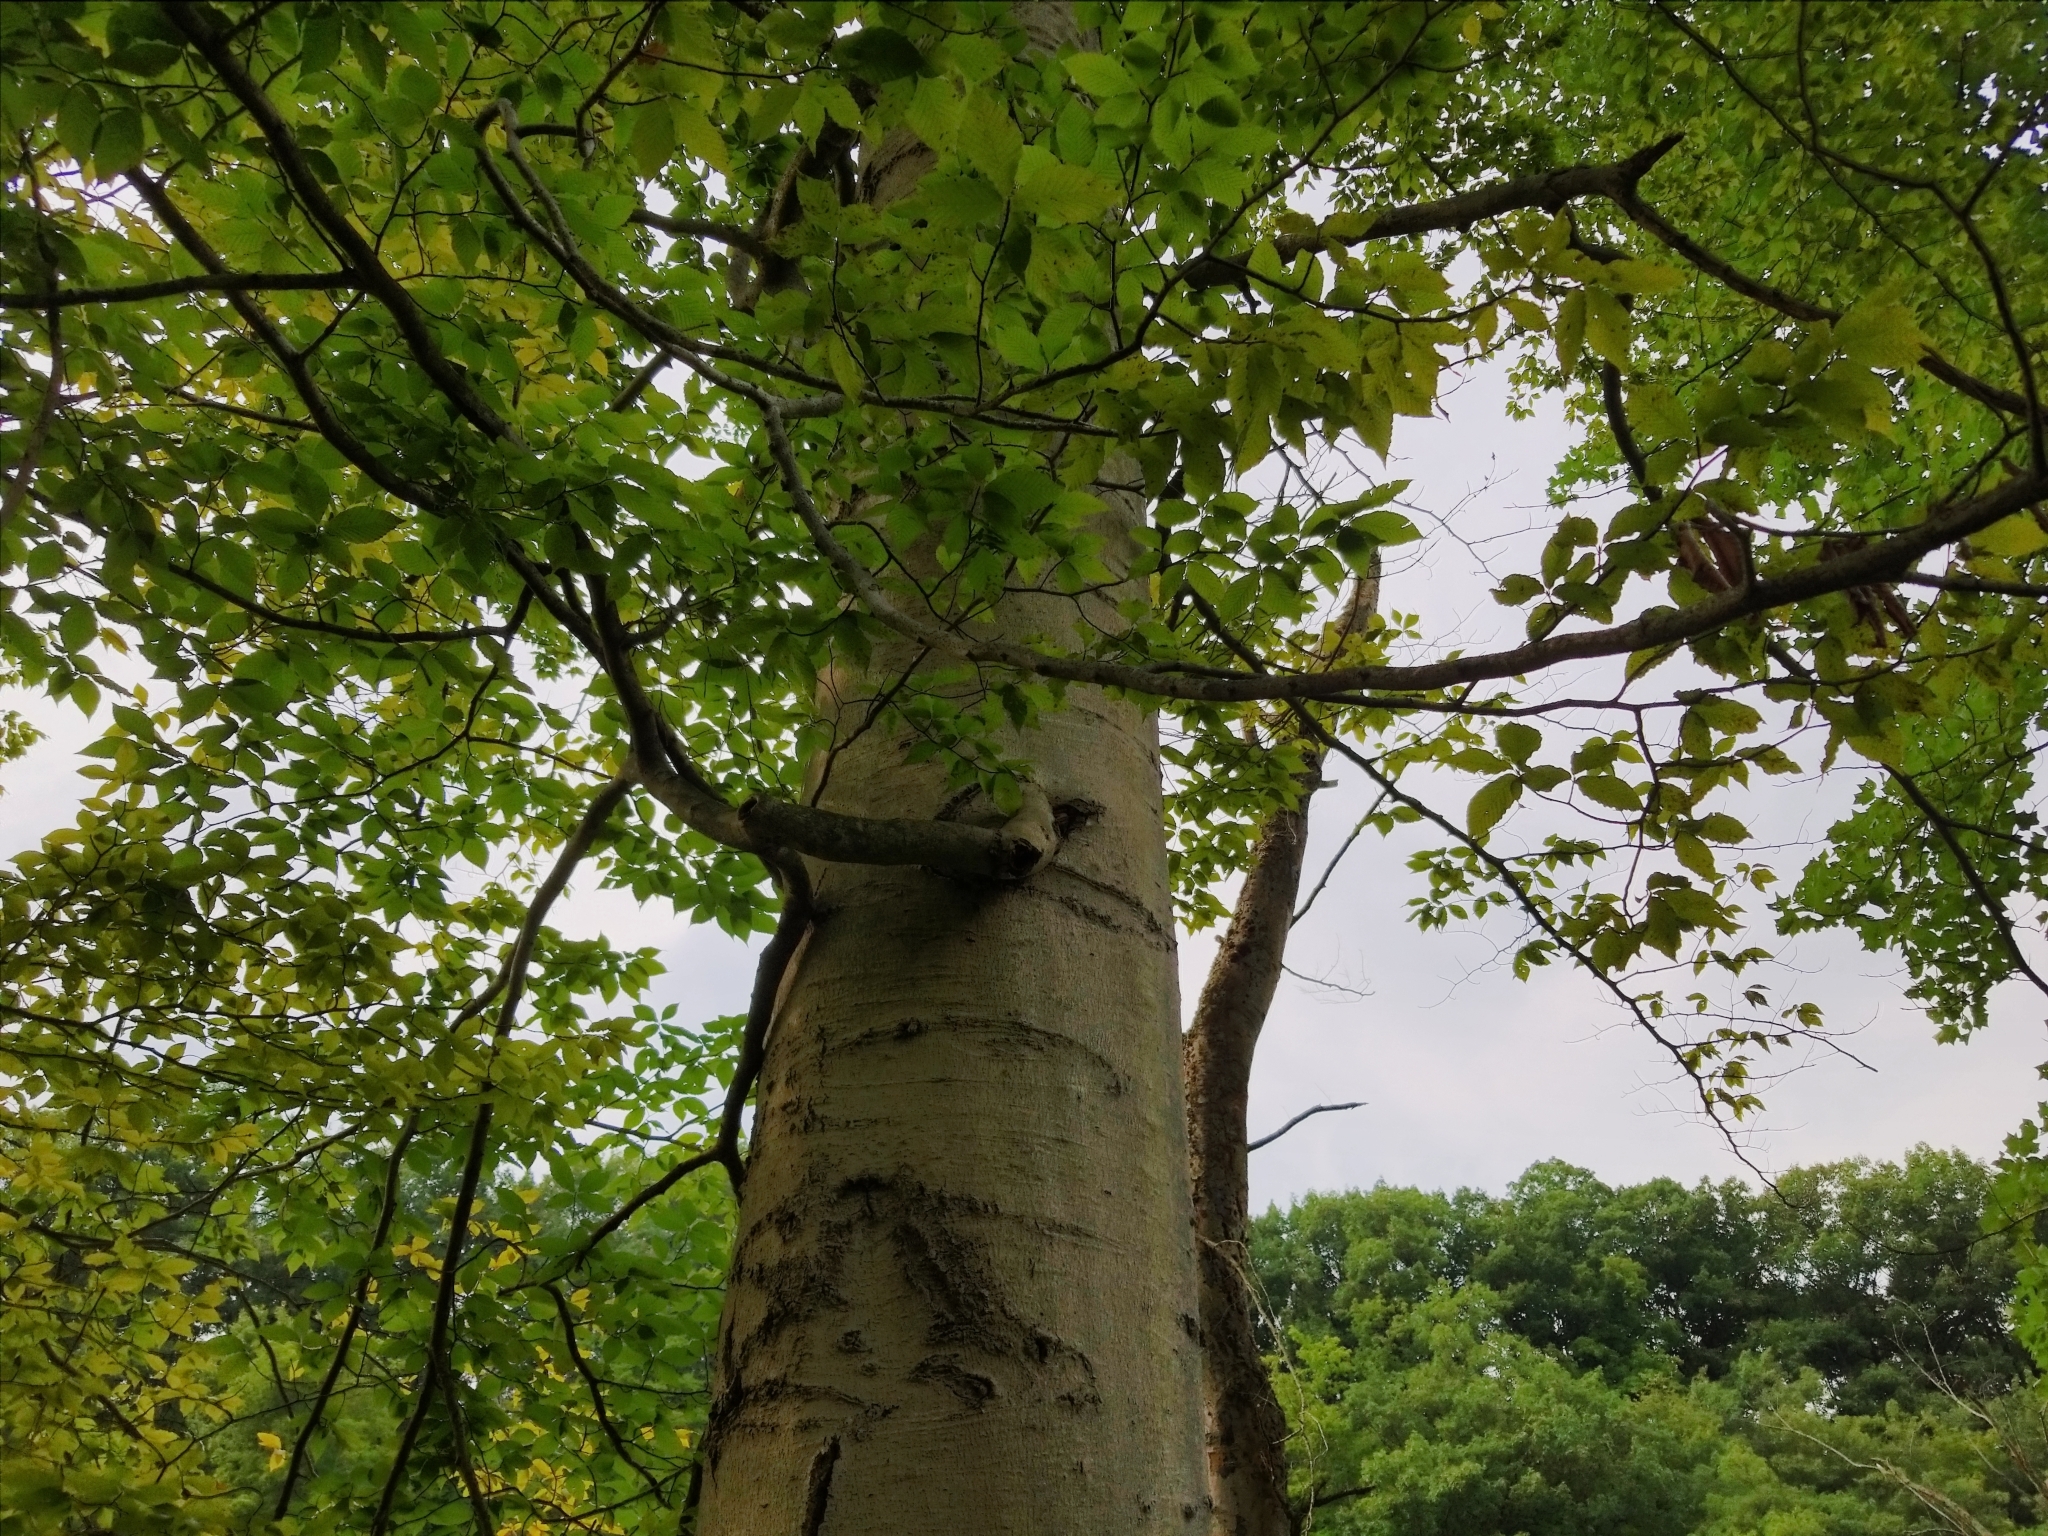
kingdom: Plantae
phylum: Tracheophyta
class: Magnoliopsida
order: Fagales
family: Fagaceae
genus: Fagus
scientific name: Fagus grandifolia
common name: American beech
